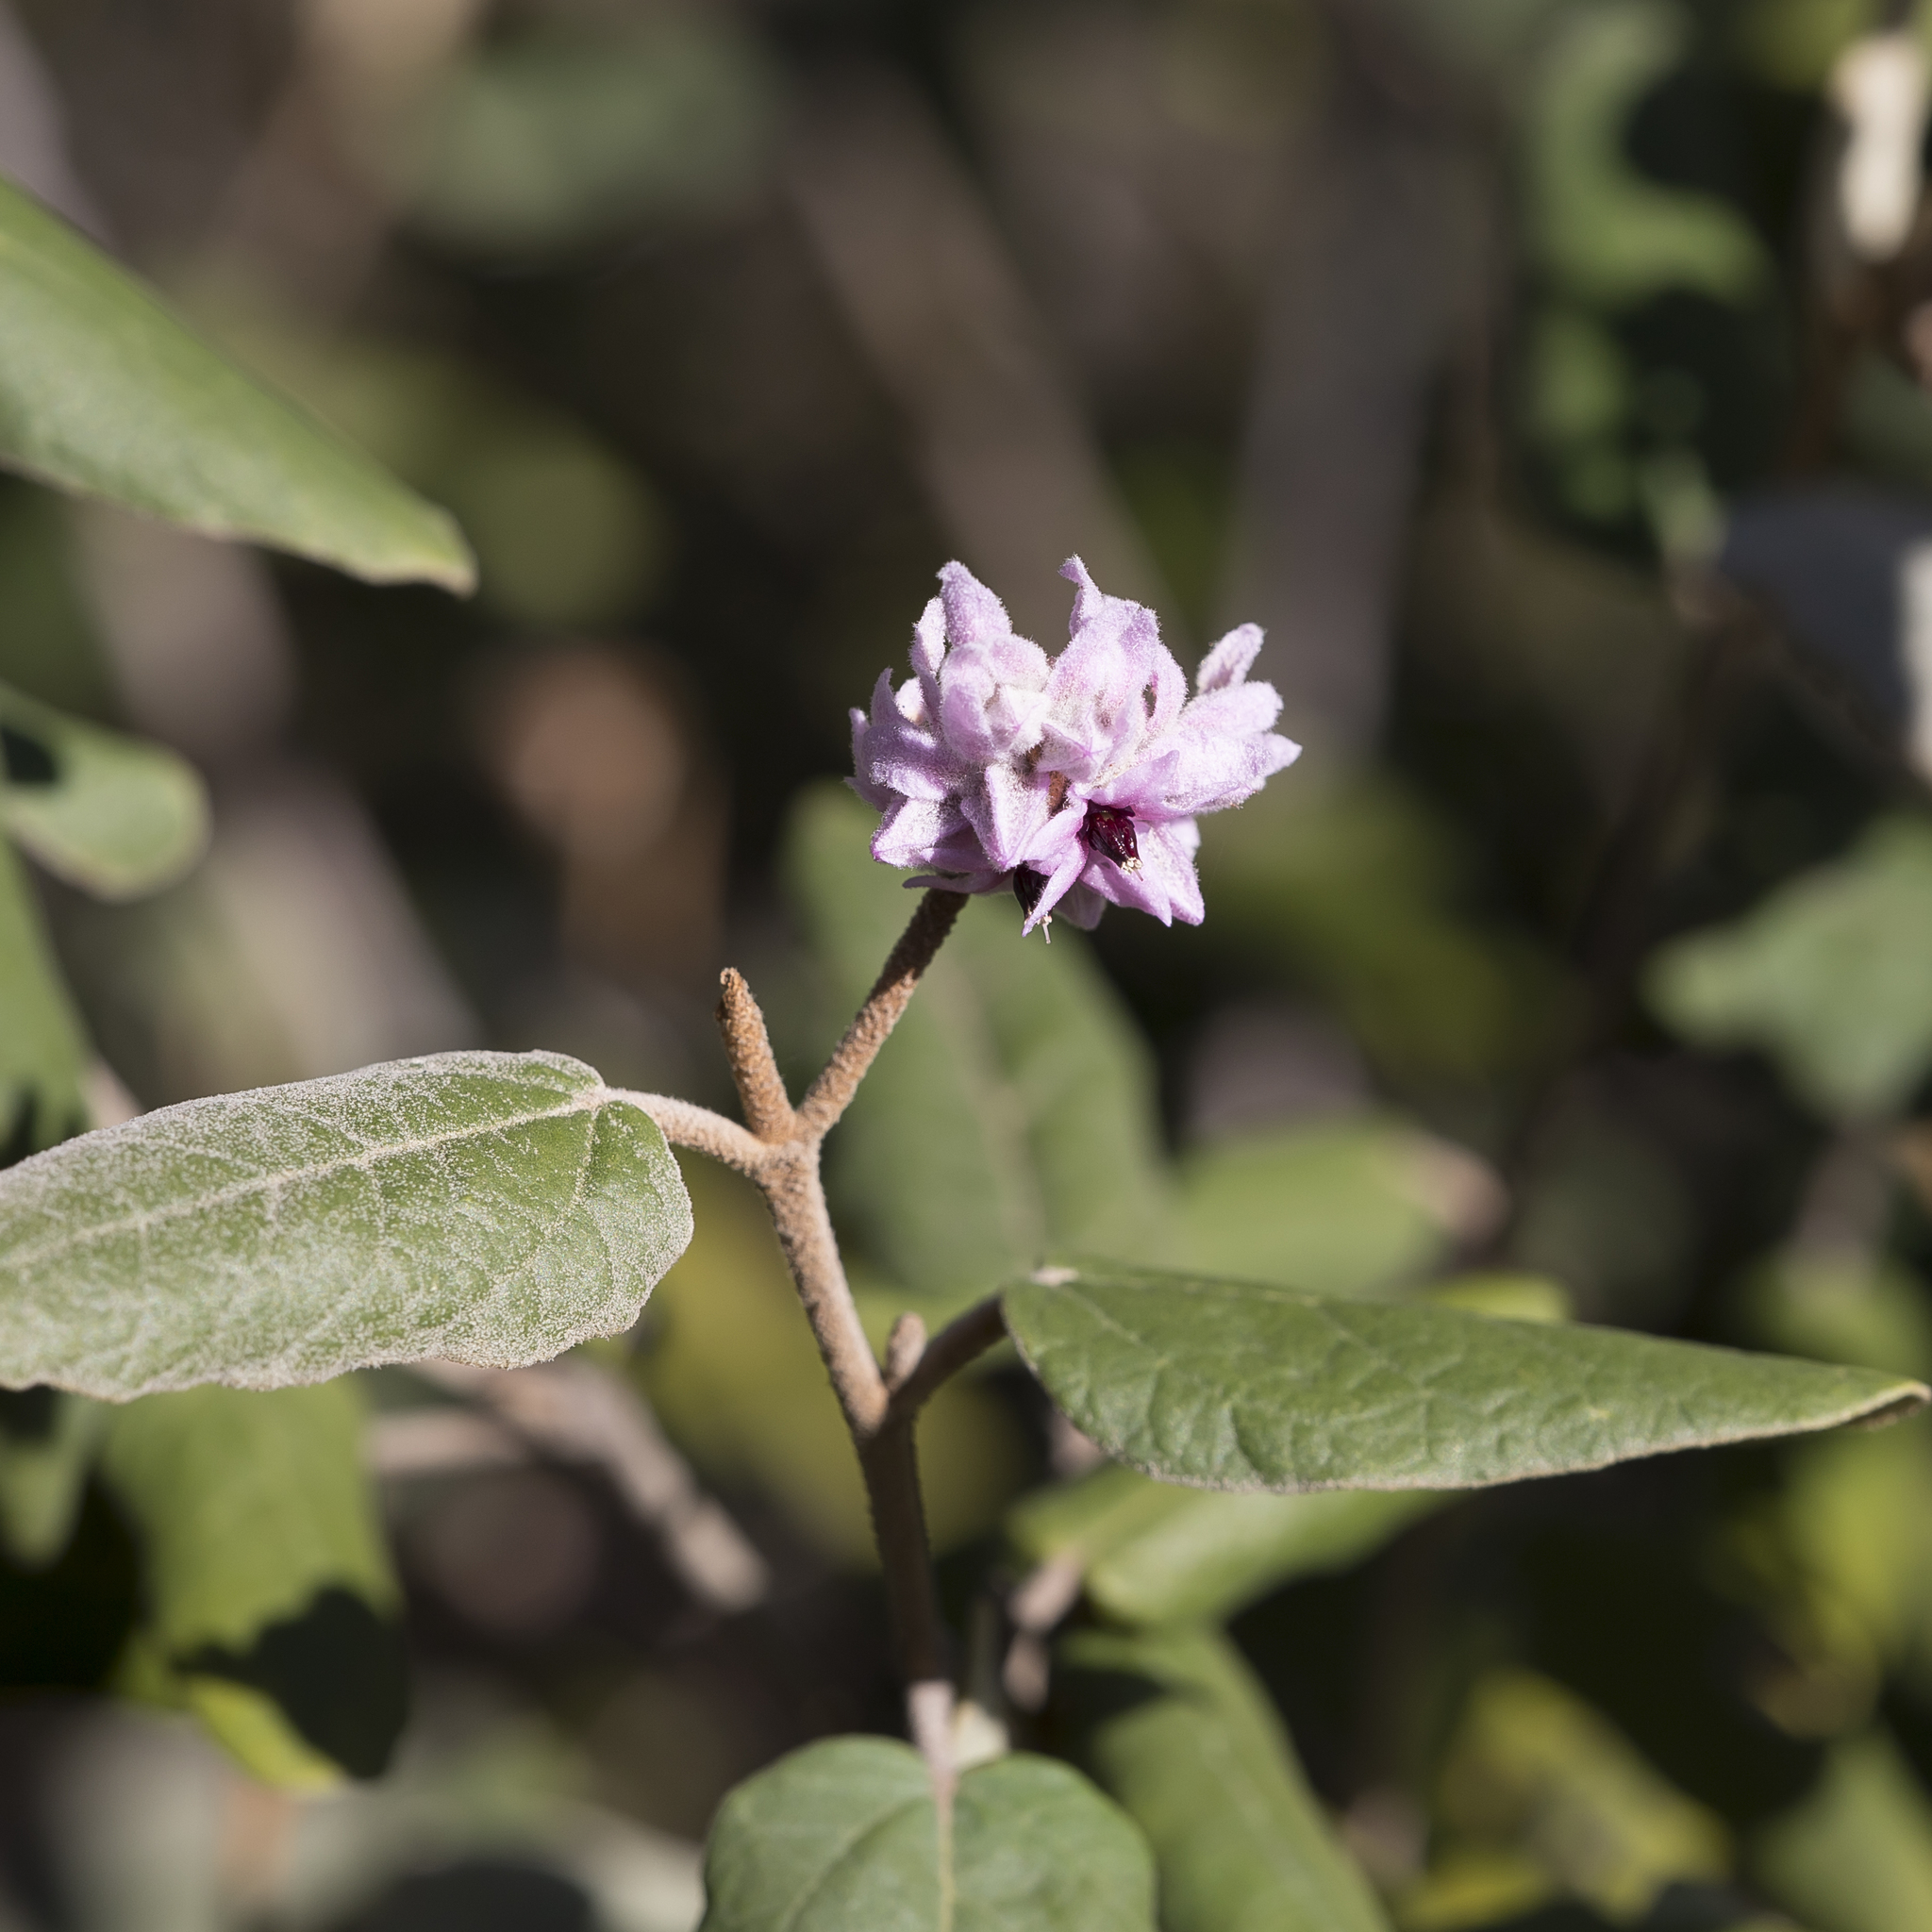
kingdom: Plantae
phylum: Tracheophyta
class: Magnoliopsida
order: Malvales
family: Malvaceae
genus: Lasiopetalum
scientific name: Lasiopetalum discolor
